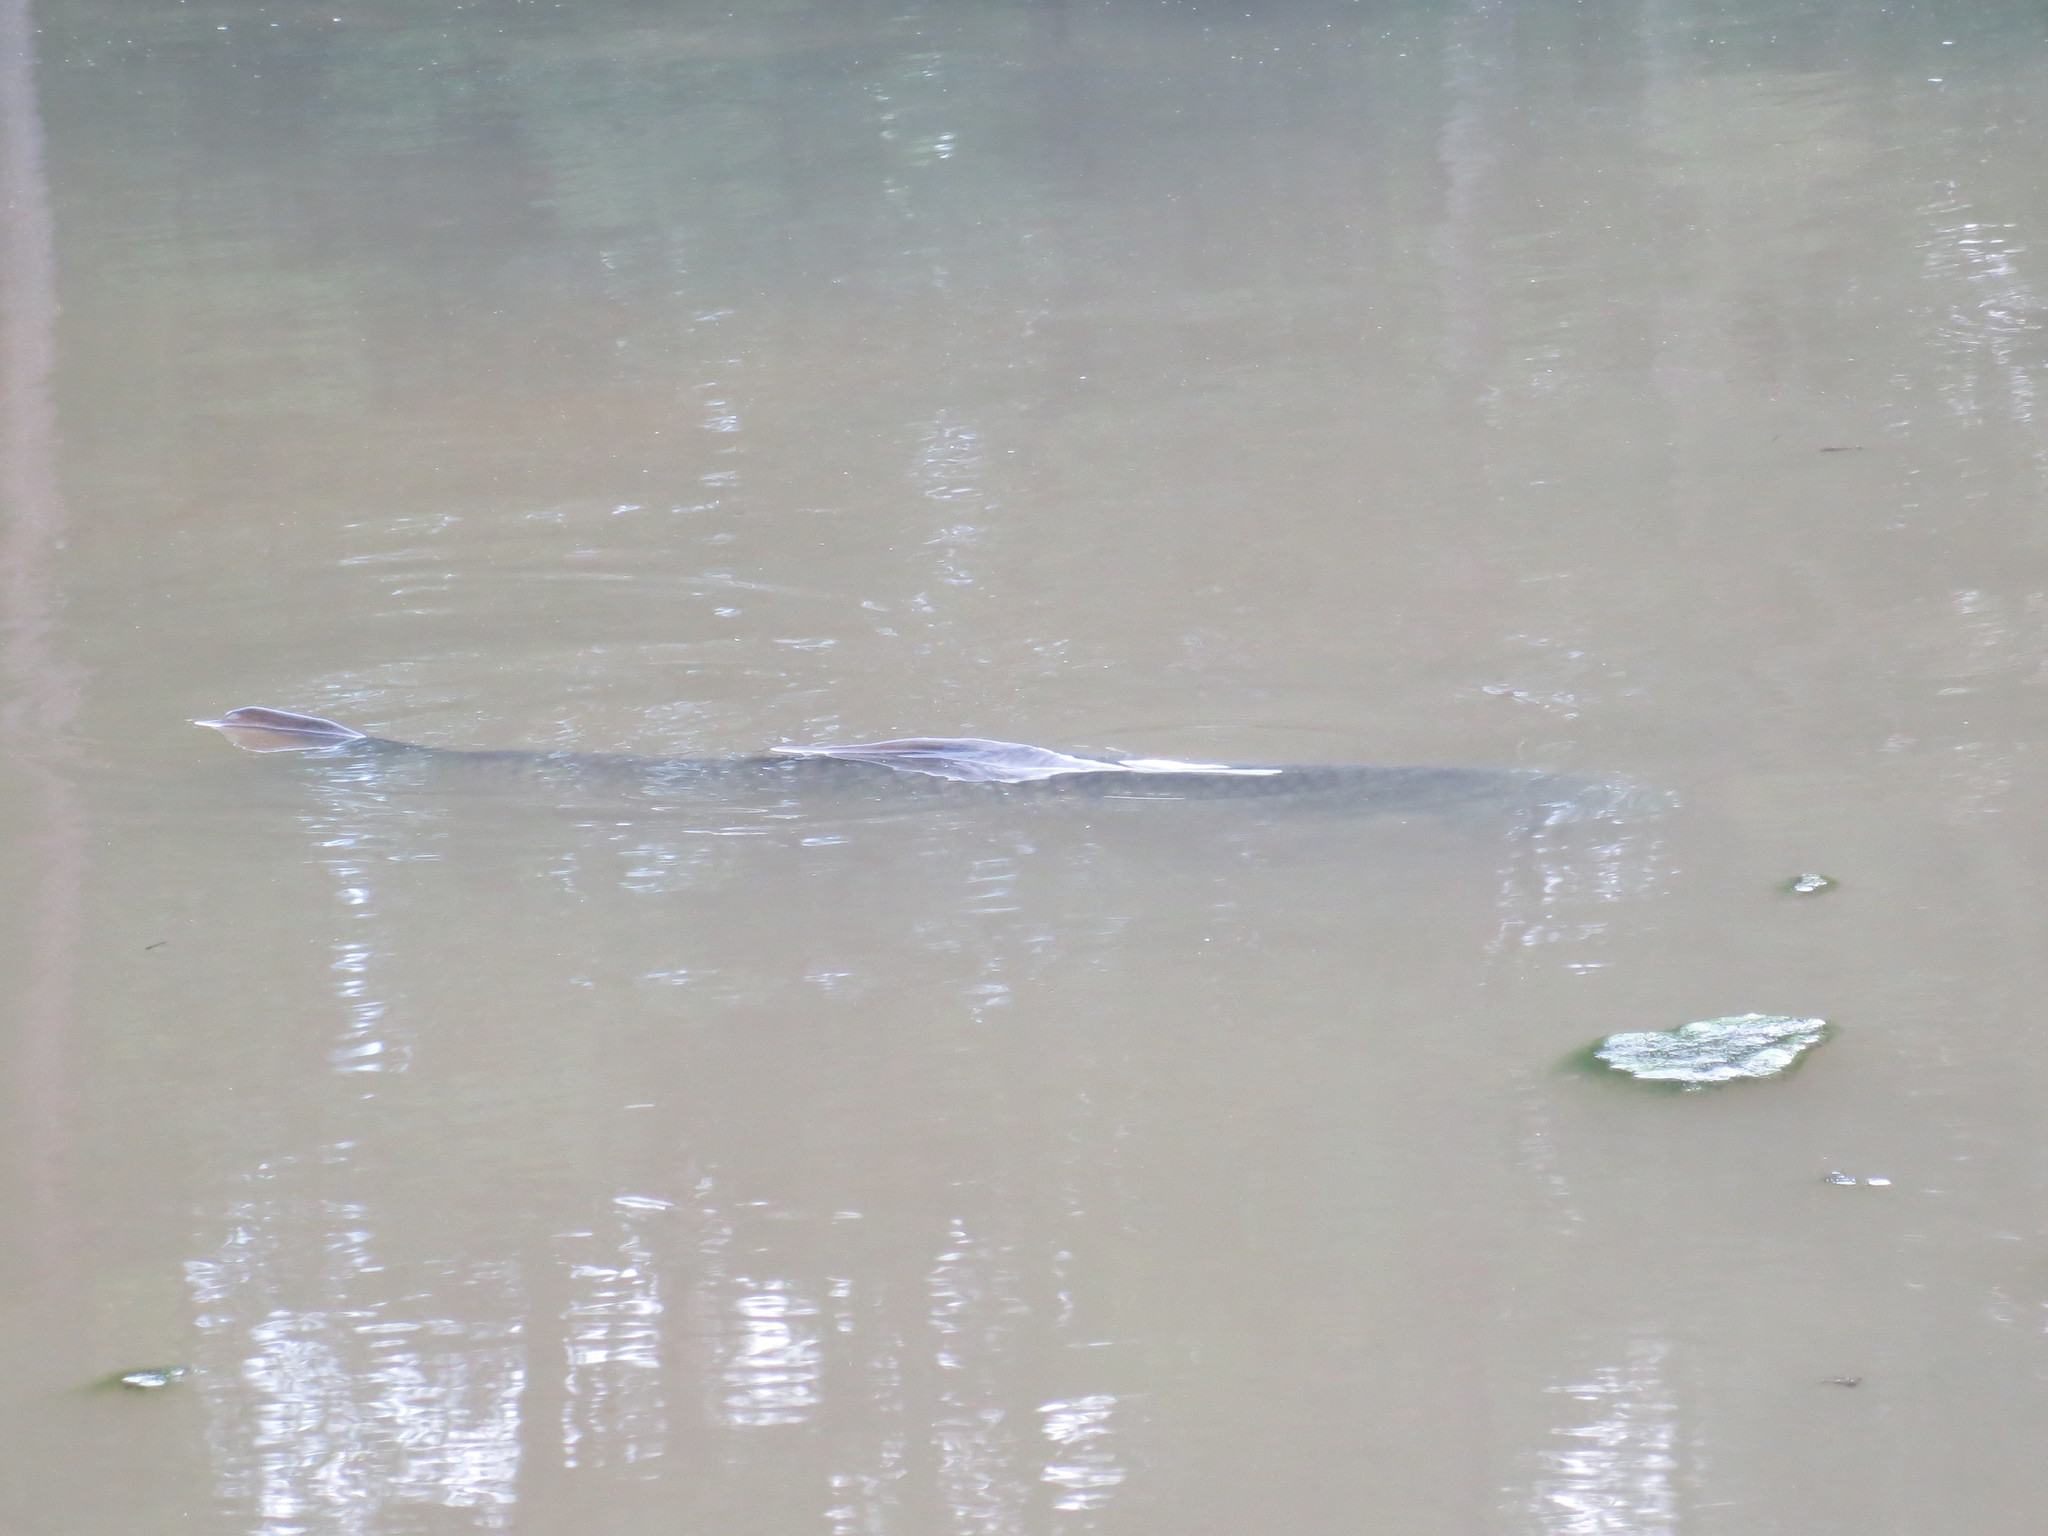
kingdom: Animalia
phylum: Chordata
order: Cypriniformes
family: Cyprinidae
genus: Ctenopharyngodon
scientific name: Ctenopharyngodon idella
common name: Grass carp
